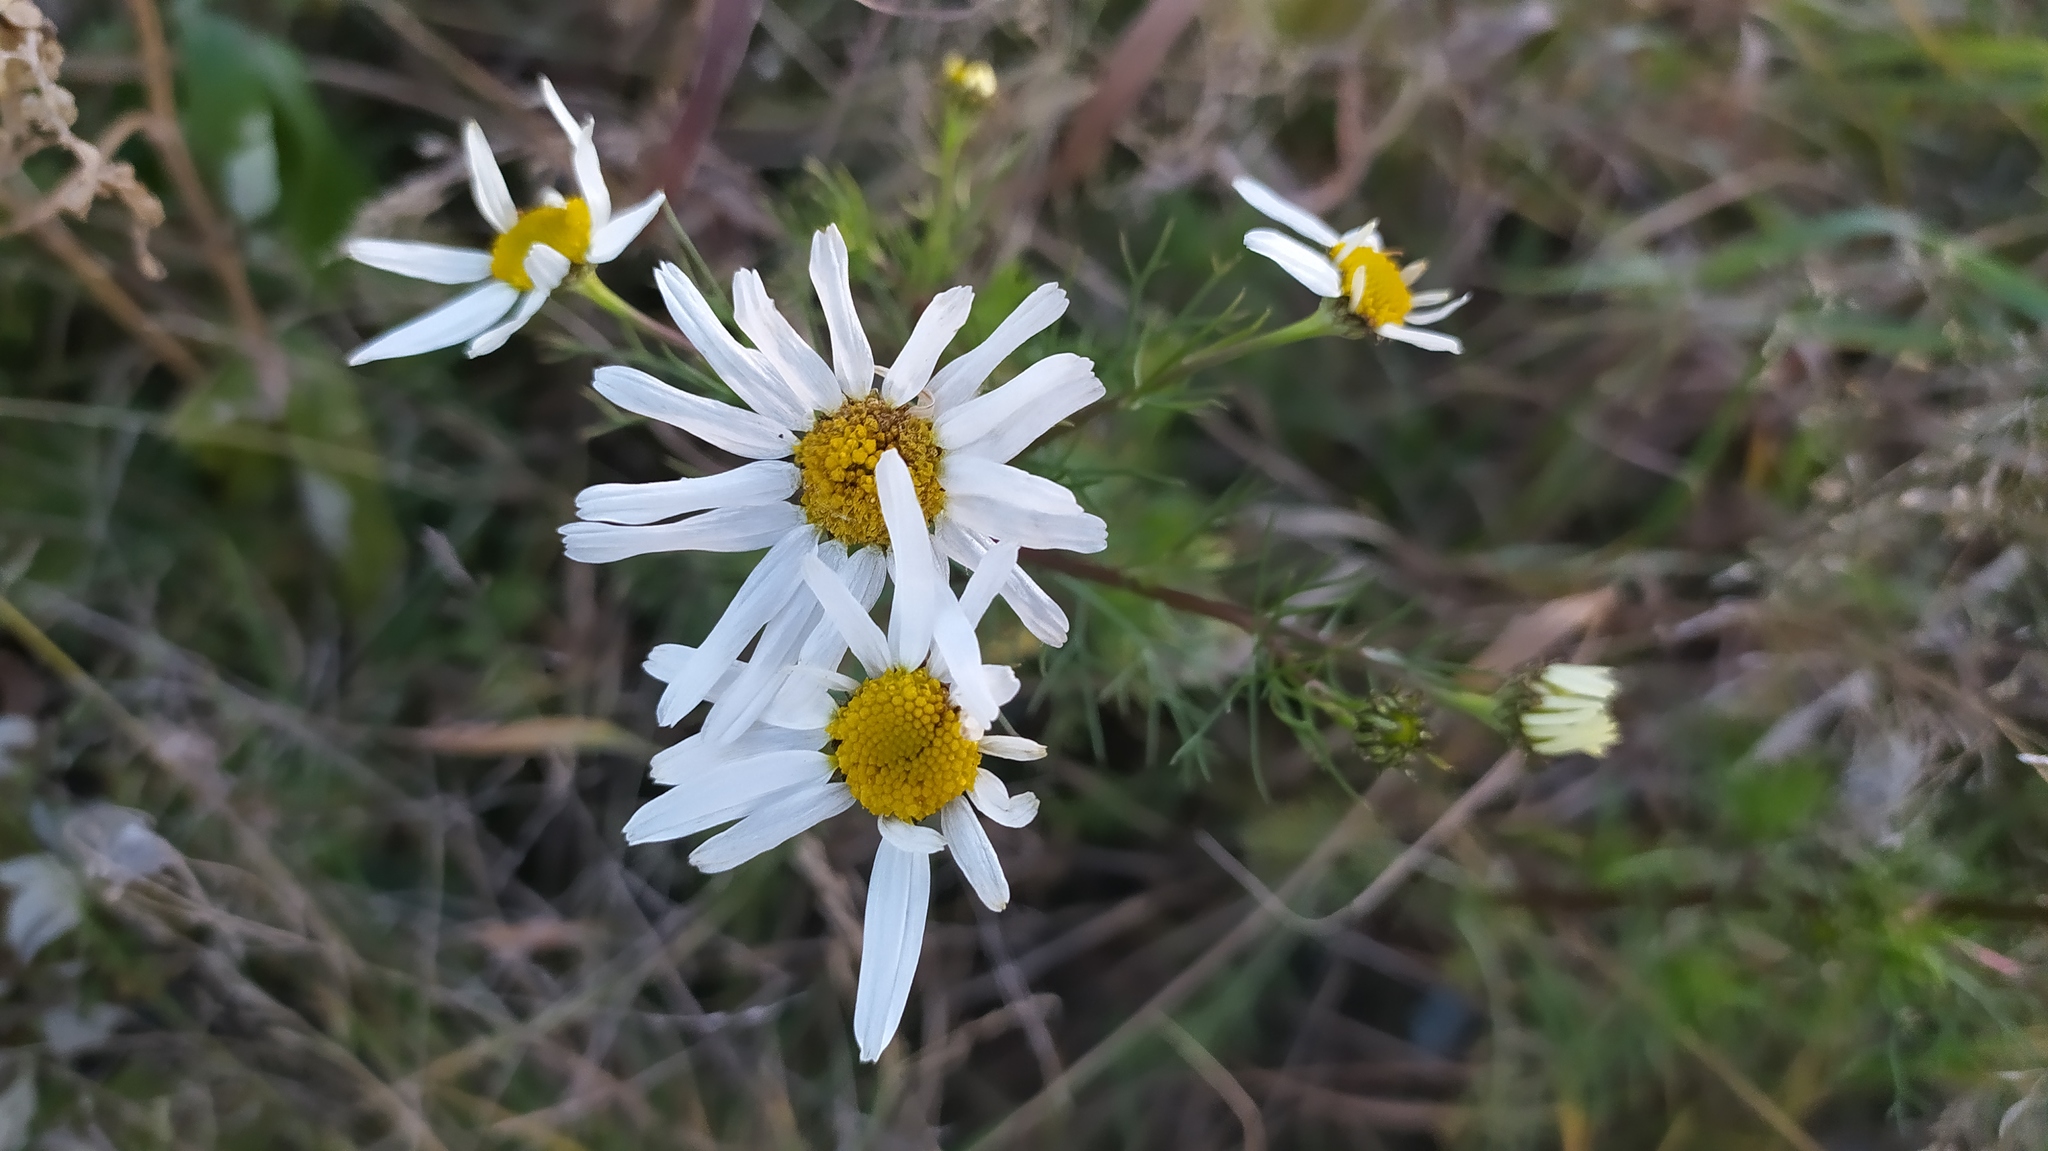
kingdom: Plantae
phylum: Tracheophyta
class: Magnoliopsida
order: Asterales
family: Asteraceae
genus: Tripleurospermum
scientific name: Tripleurospermum inodorum
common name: Scentless mayweed
